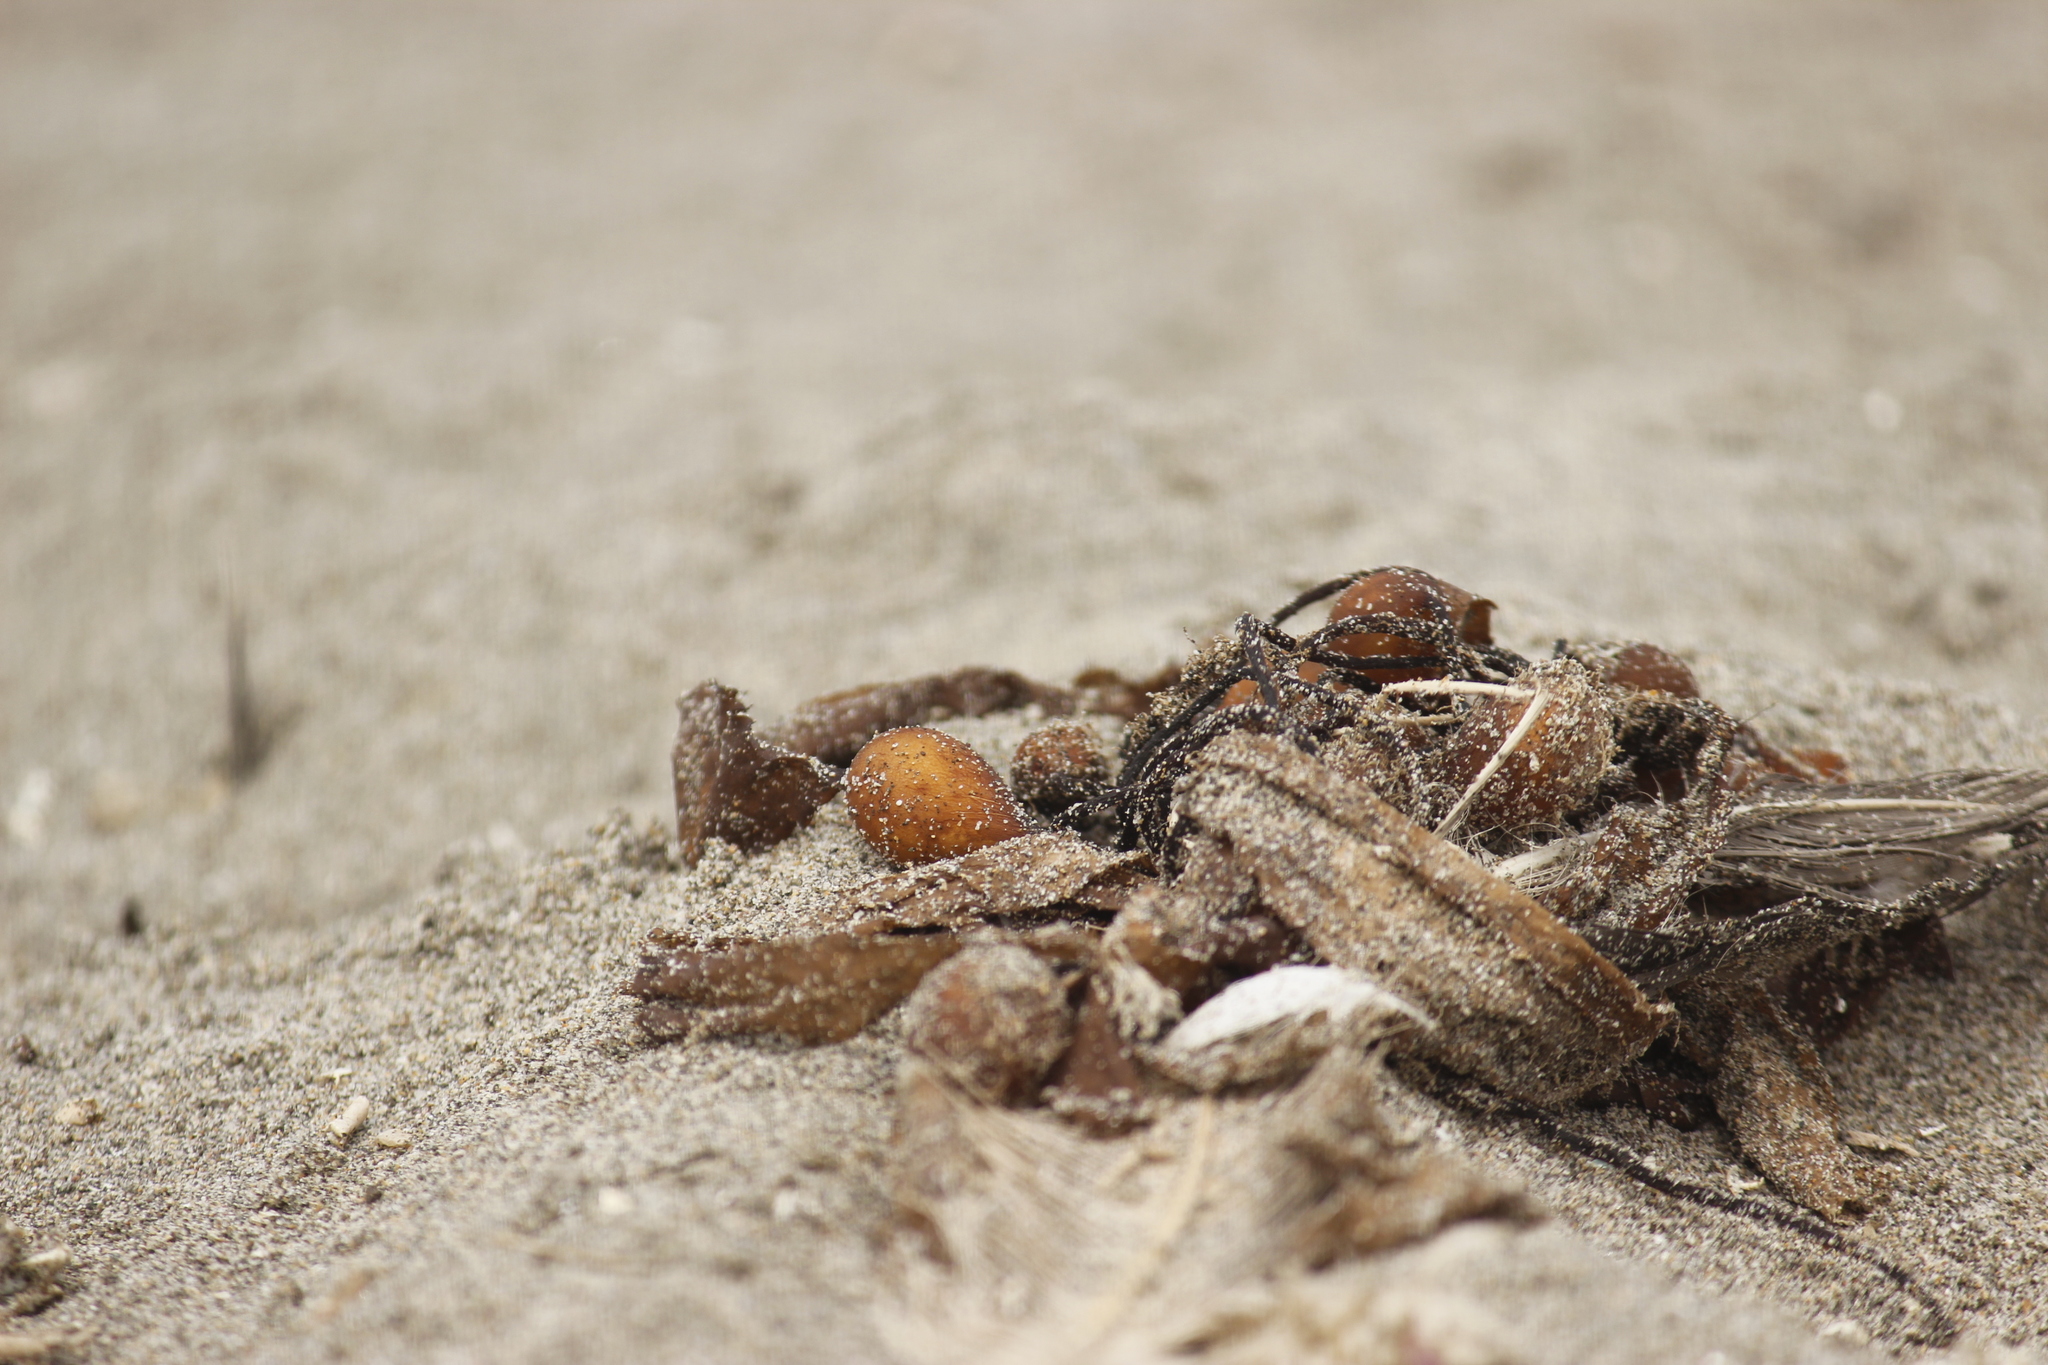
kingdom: Chromista
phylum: Ochrophyta
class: Phaeophyceae
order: Laminariales
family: Laminariaceae
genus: Macrocystis
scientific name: Macrocystis pyrifera
